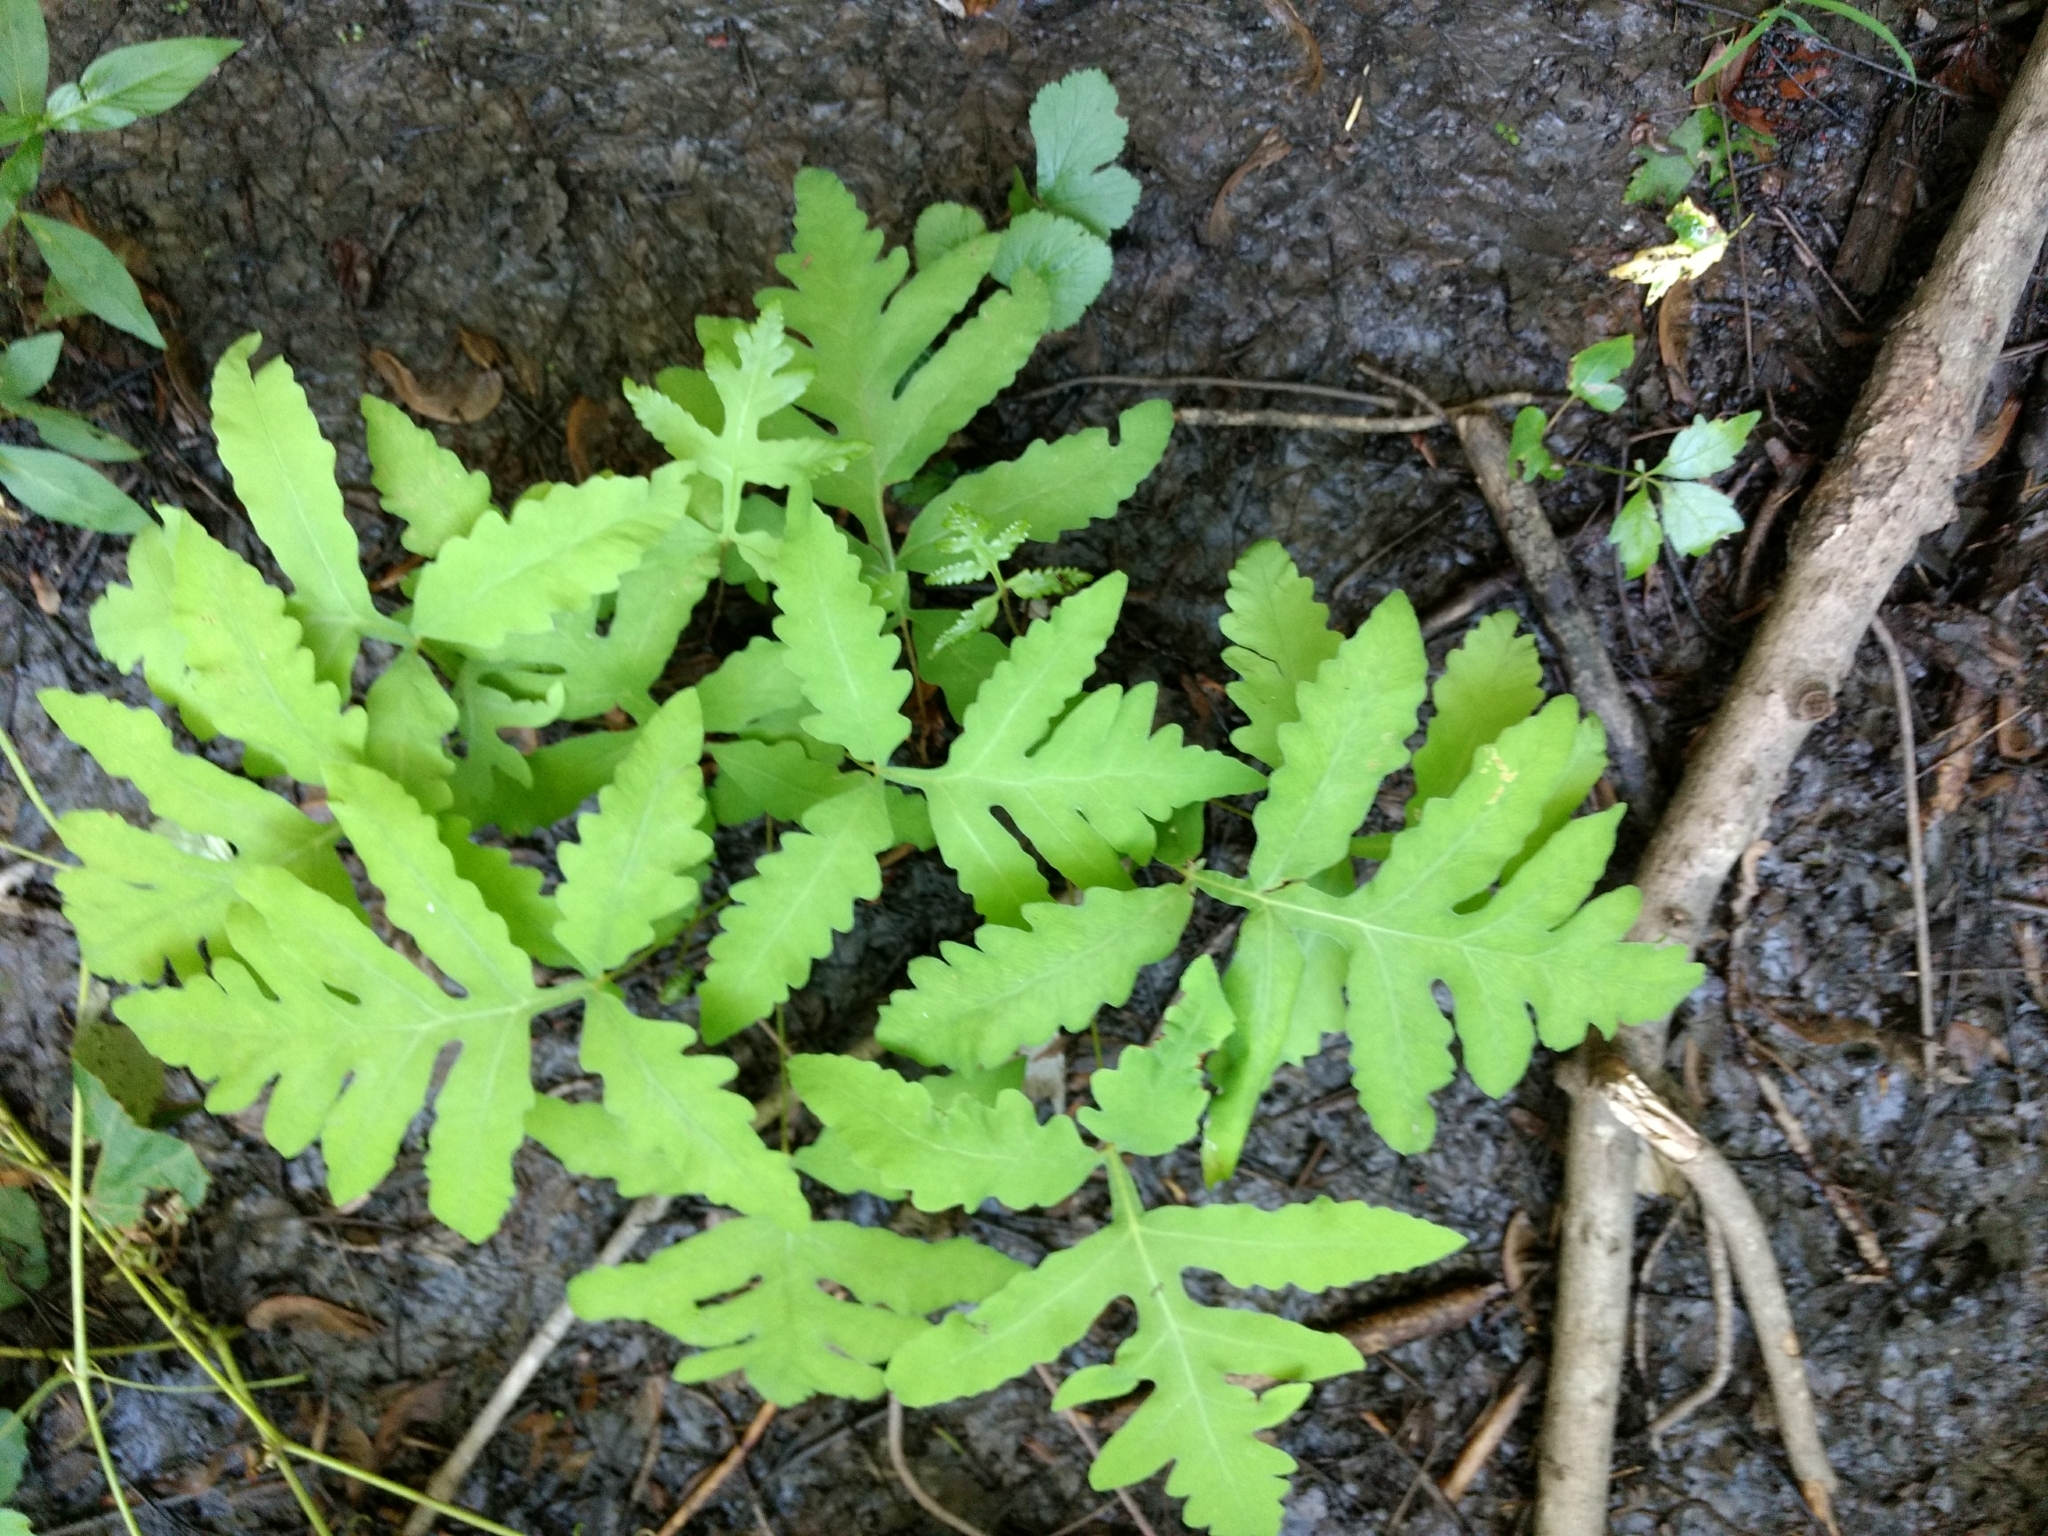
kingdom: Plantae
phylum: Tracheophyta
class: Polypodiopsida
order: Polypodiales
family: Onocleaceae
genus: Onoclea
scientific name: Onoclea sensibilis
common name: Sensitive fern
